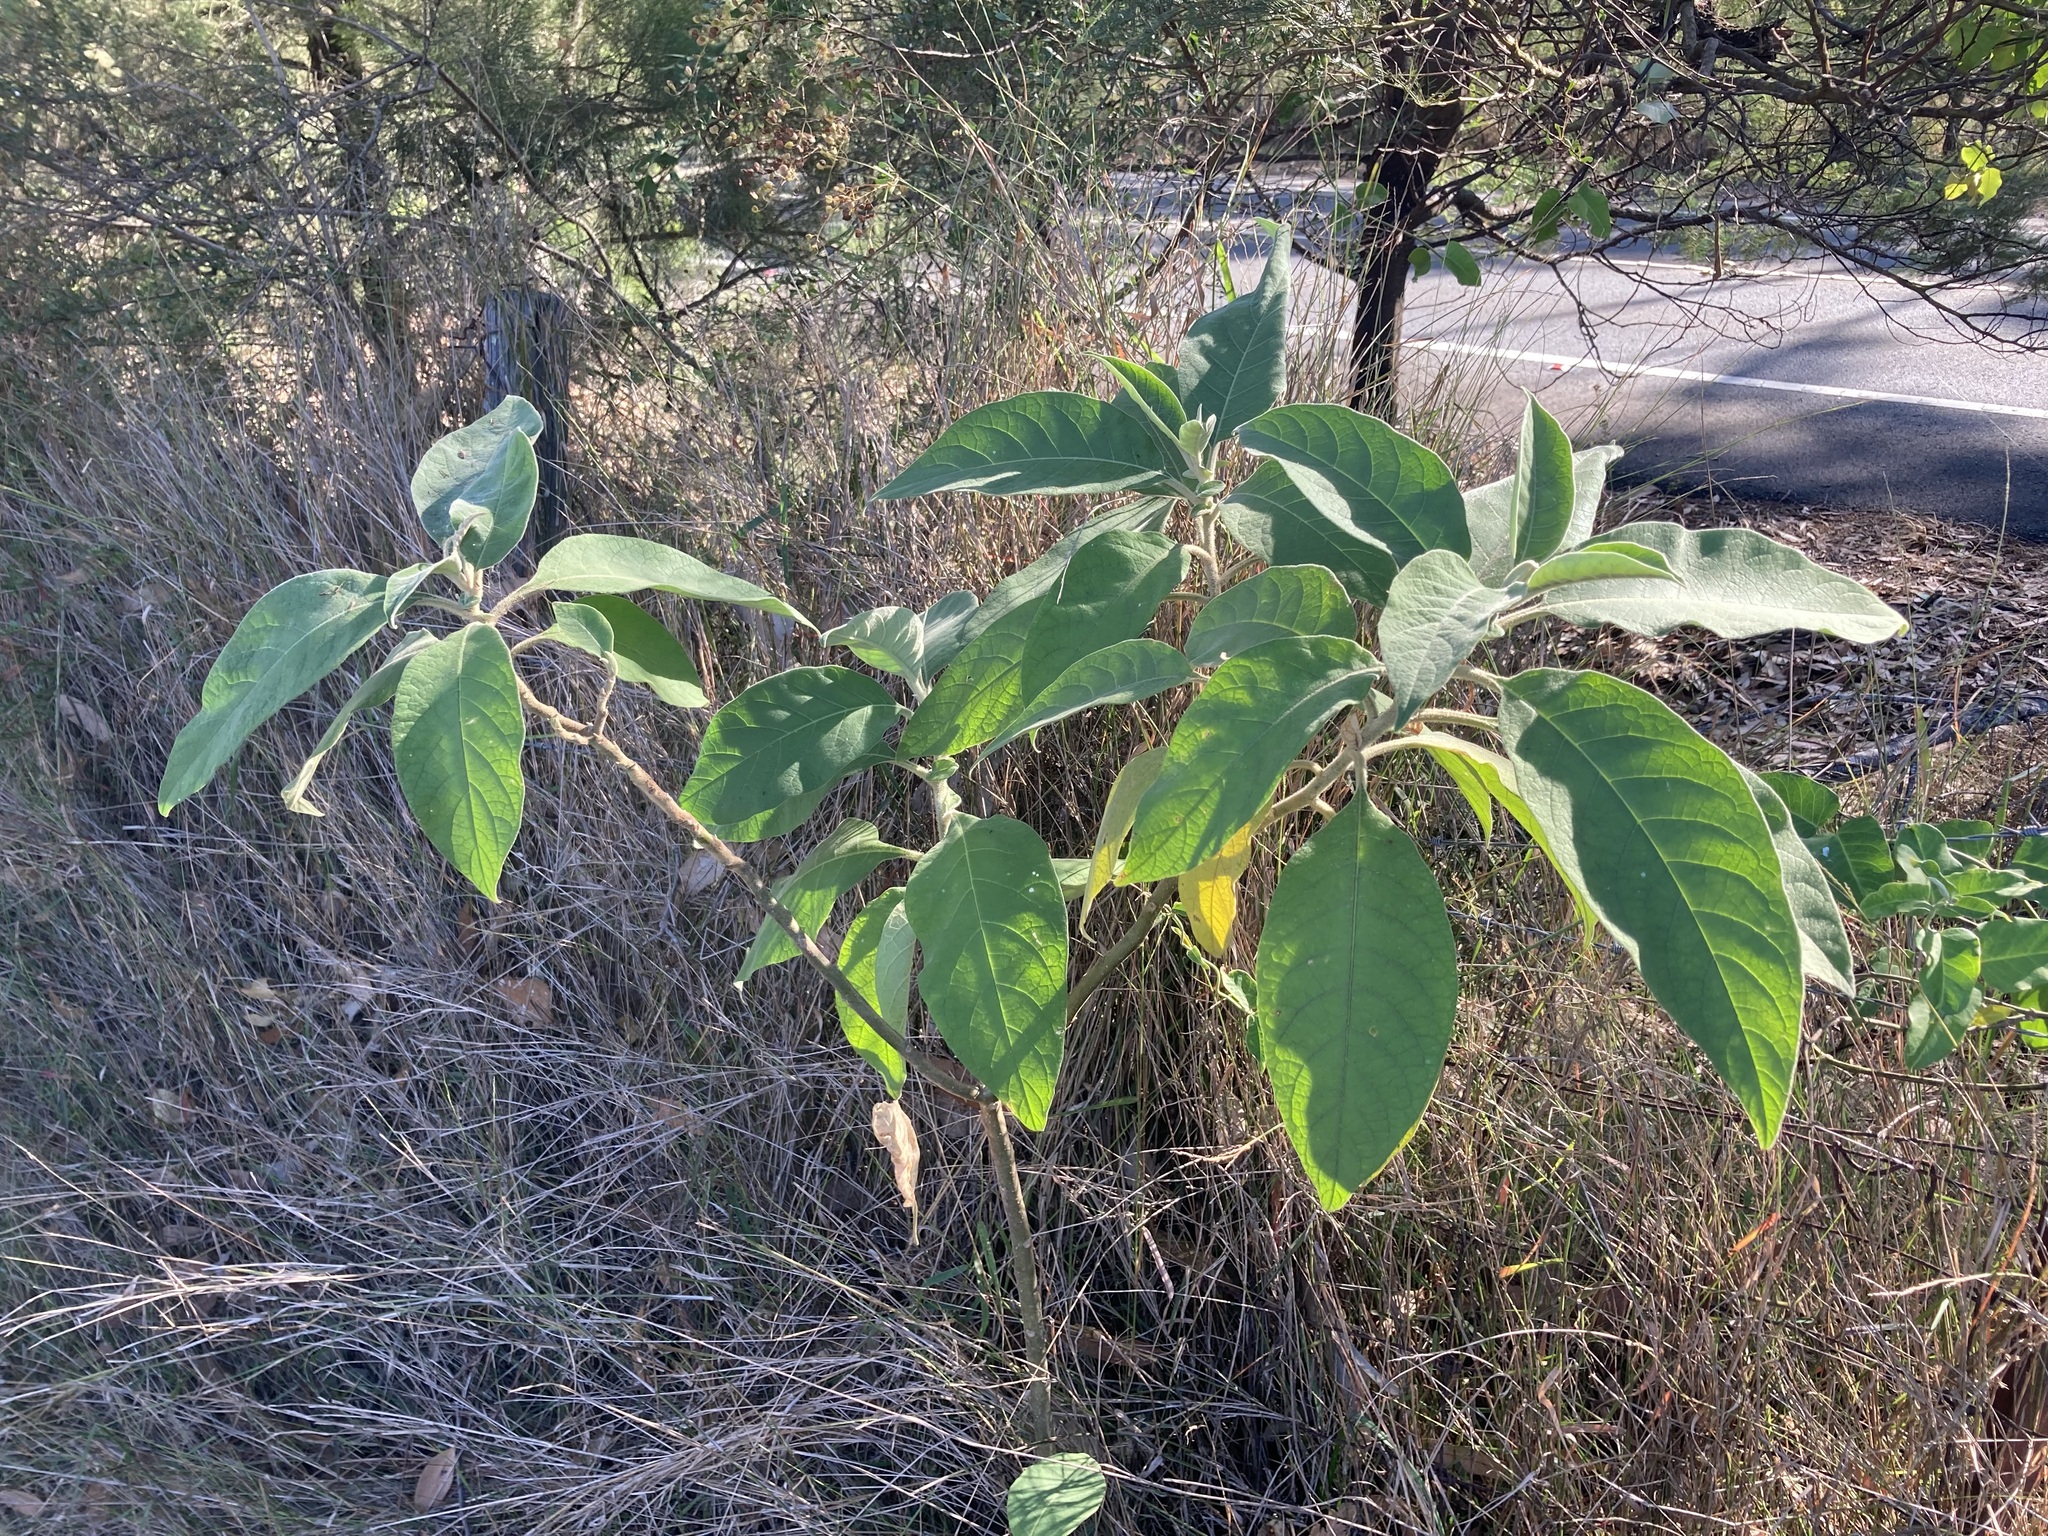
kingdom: Plantae
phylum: Tracheophyta
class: Magnoliopsida
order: Solanales
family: Solanaceae
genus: Solanum
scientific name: Solanum mauritianum
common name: Earleaf nightshade
